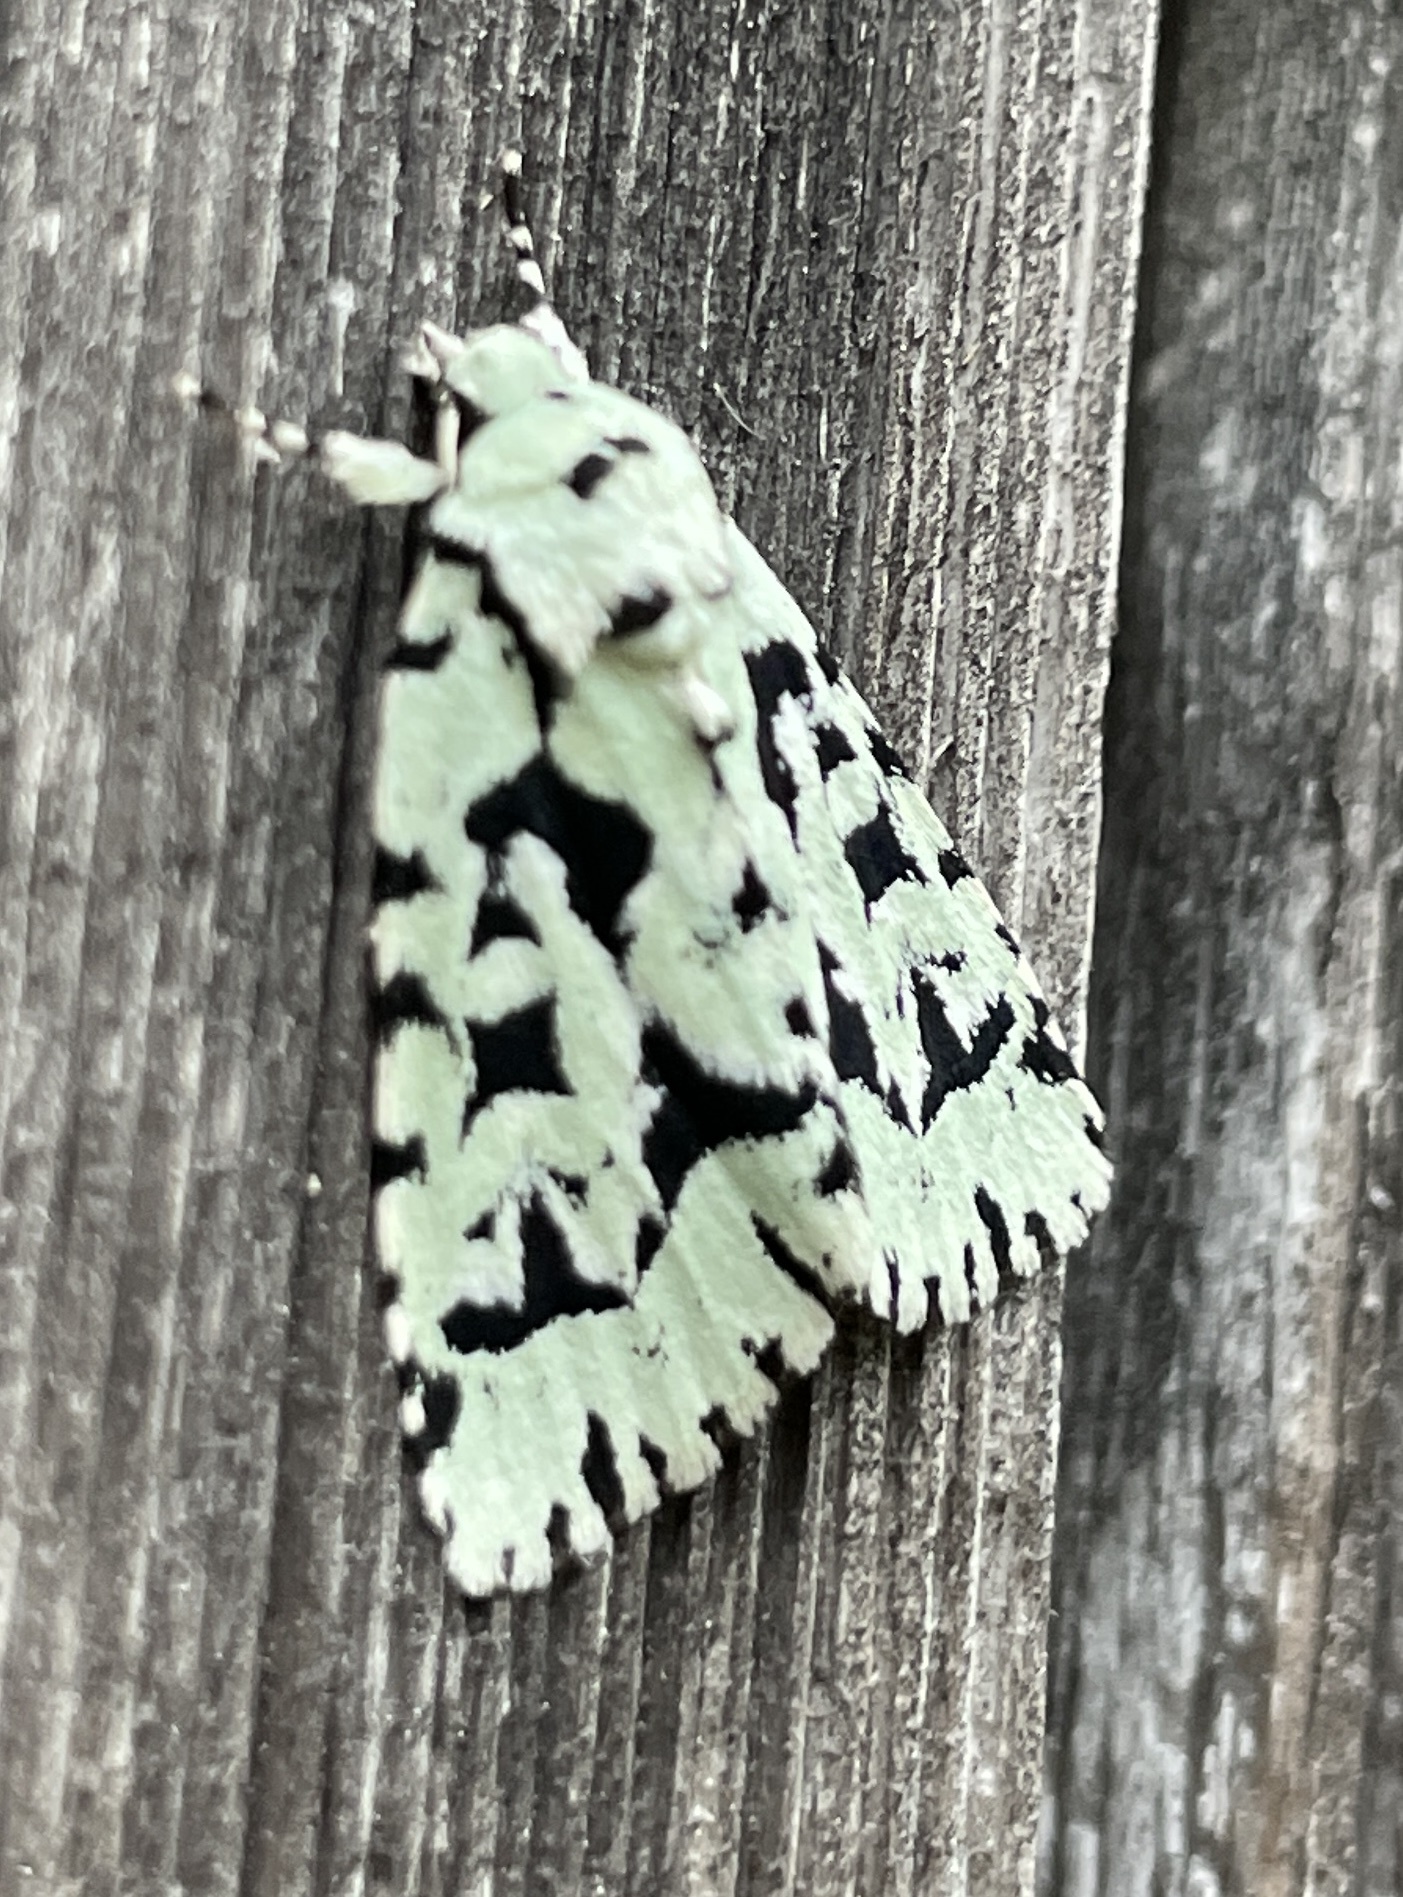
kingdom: Animalia
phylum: Arthropoda
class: Insecta
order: Lepidoptera
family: Noctuidae
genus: Acronicta
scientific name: Acronicta fallax
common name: Green marvel
